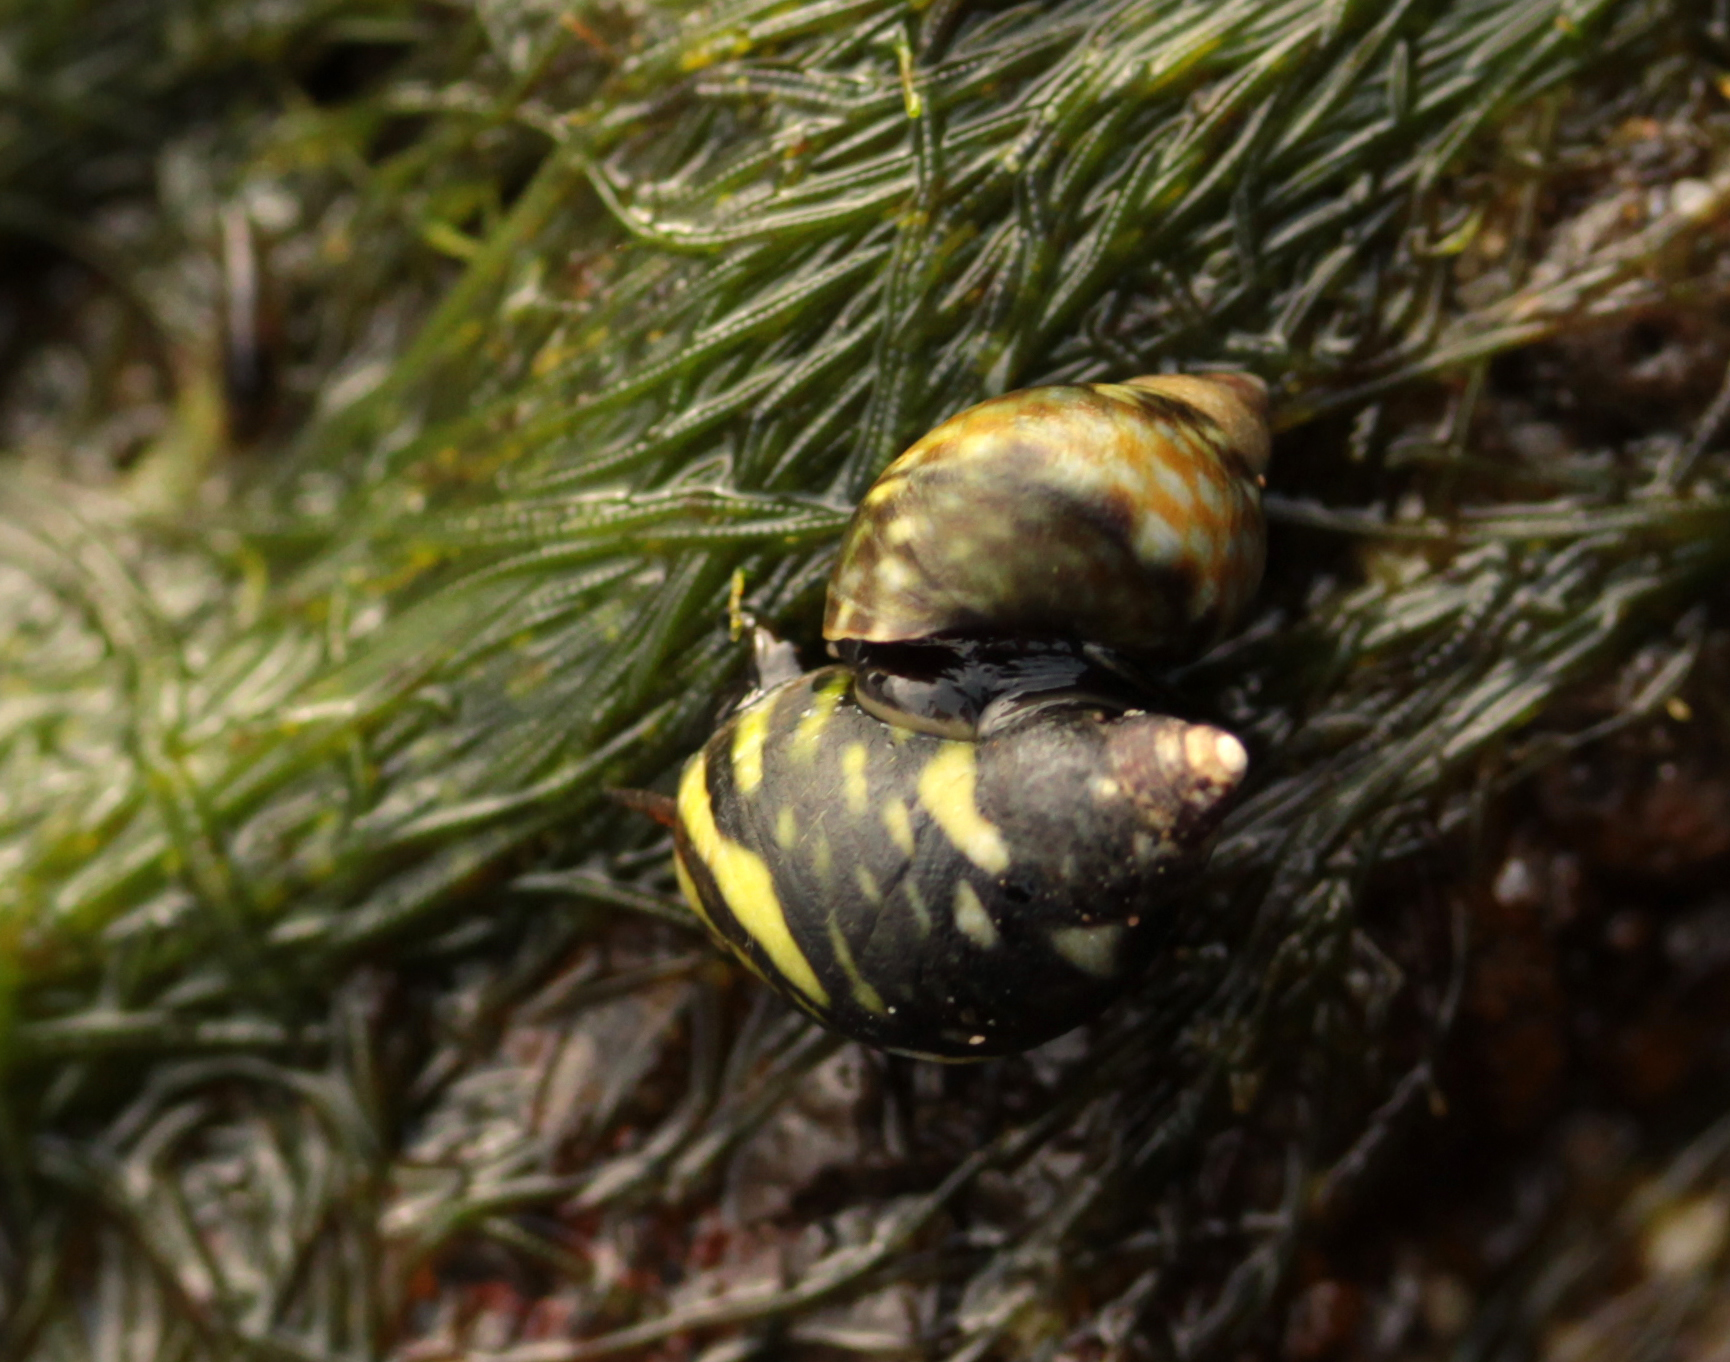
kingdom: Animalia
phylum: Mollusca
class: Gastropoda
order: Littorinimorpha
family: Littorinidae
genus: Littorina
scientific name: Littorina scutulata
